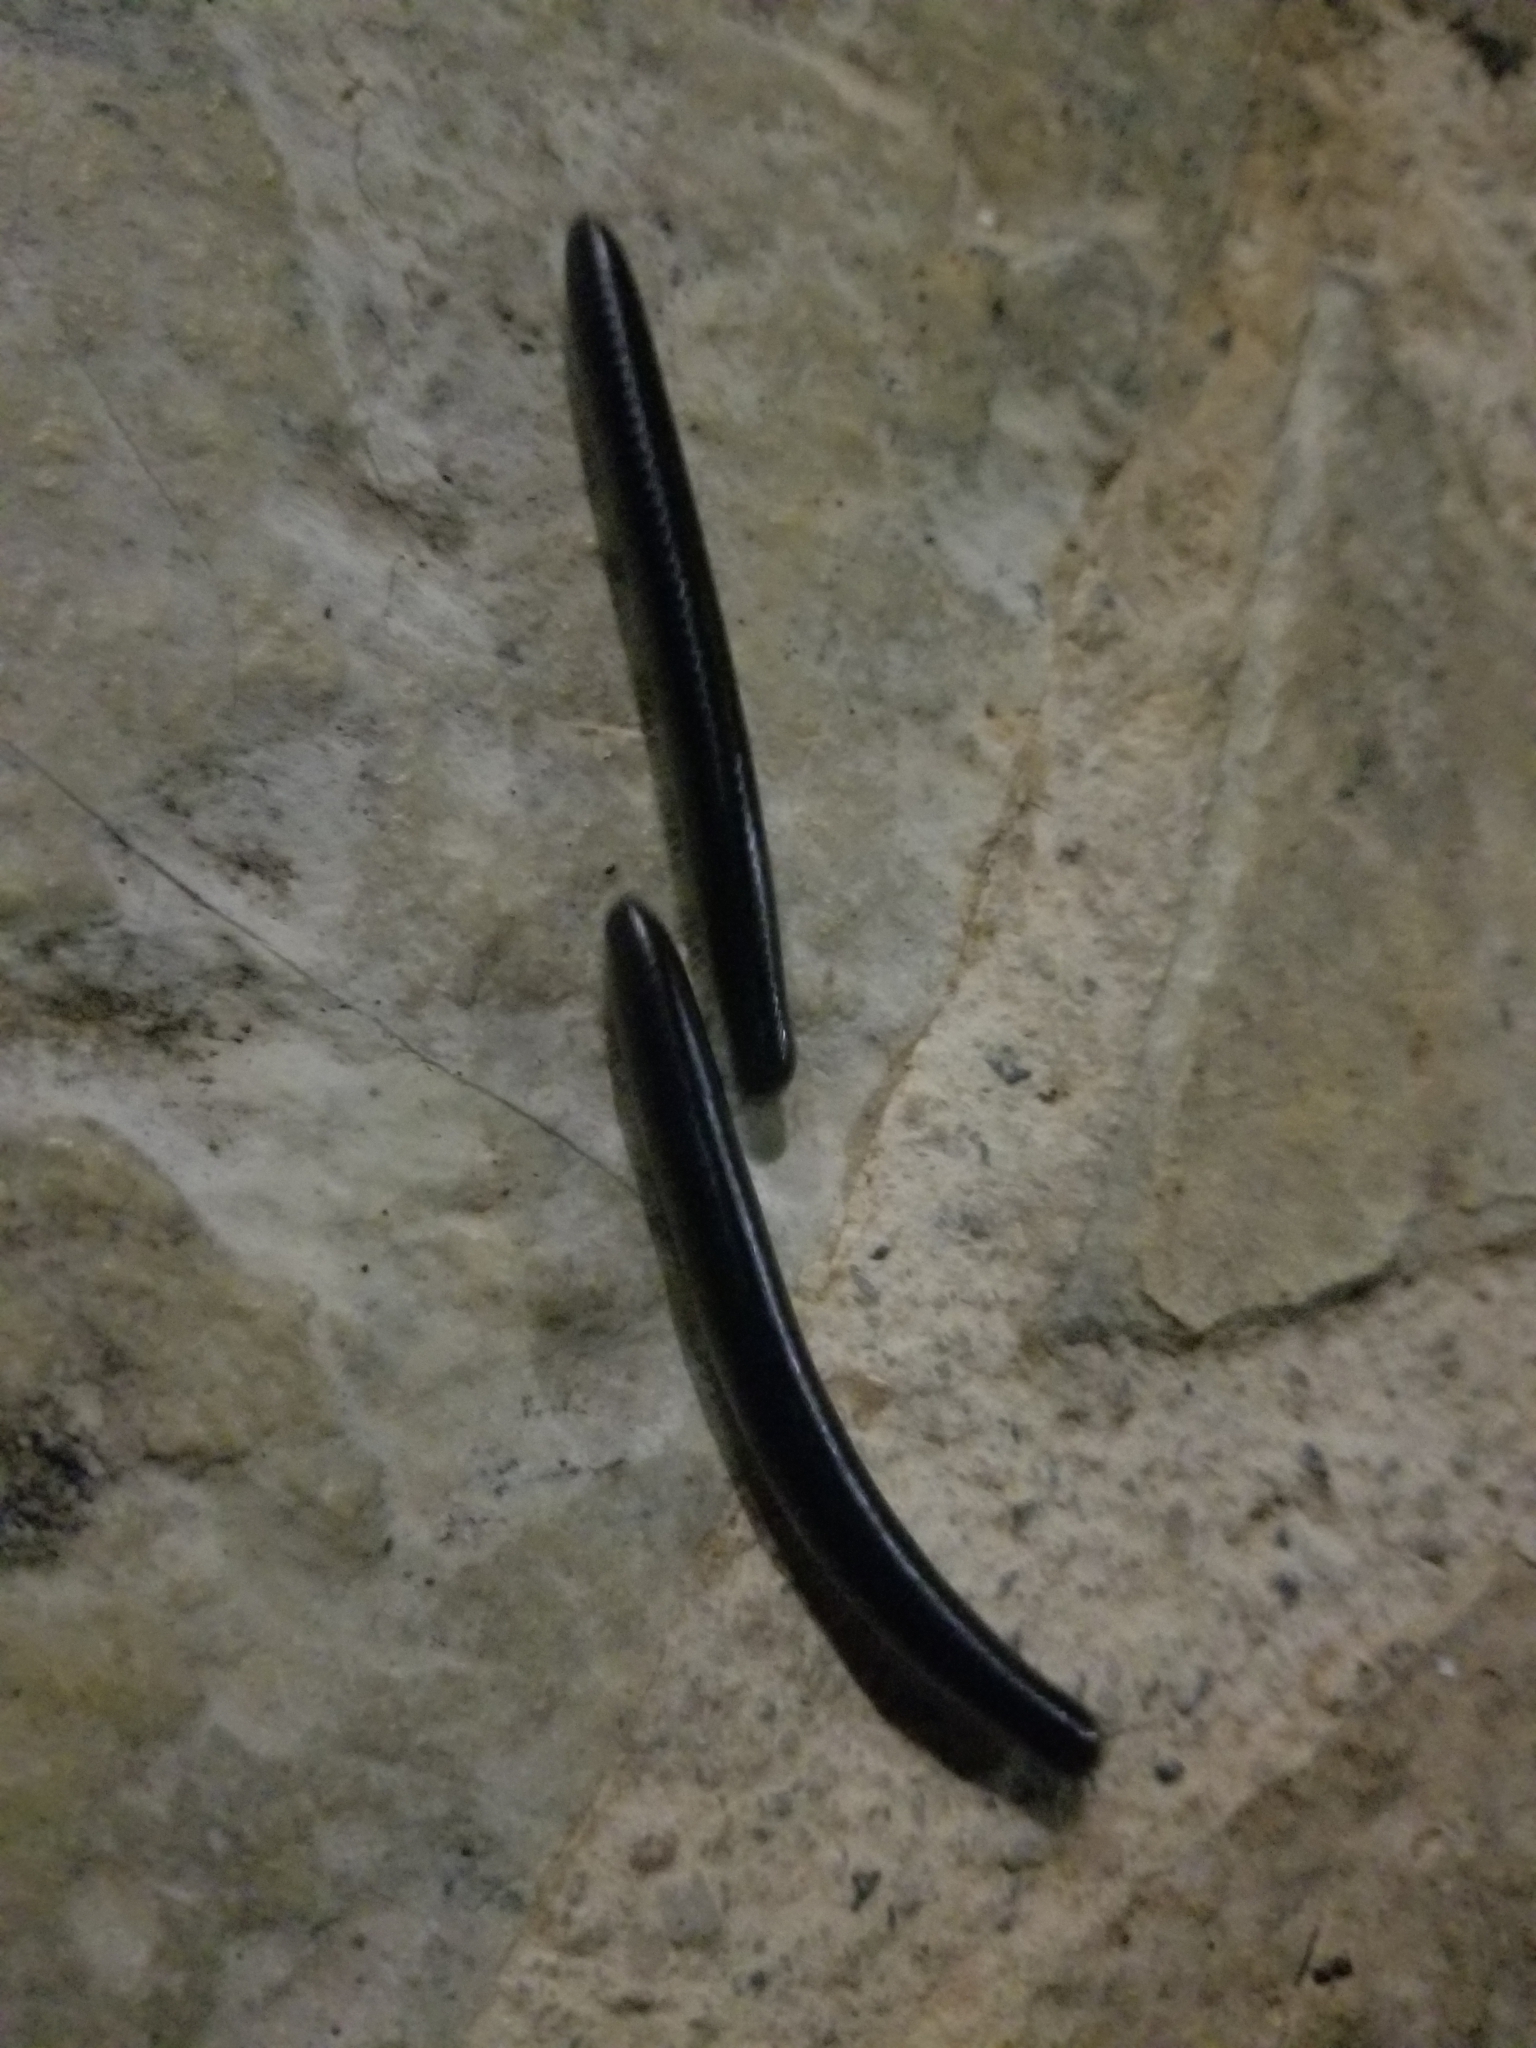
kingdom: Animalia
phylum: Arthropoda
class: Diplopoda
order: Julida
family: Julidae
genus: Pachyiulus
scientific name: Pachyiulus flavipes
